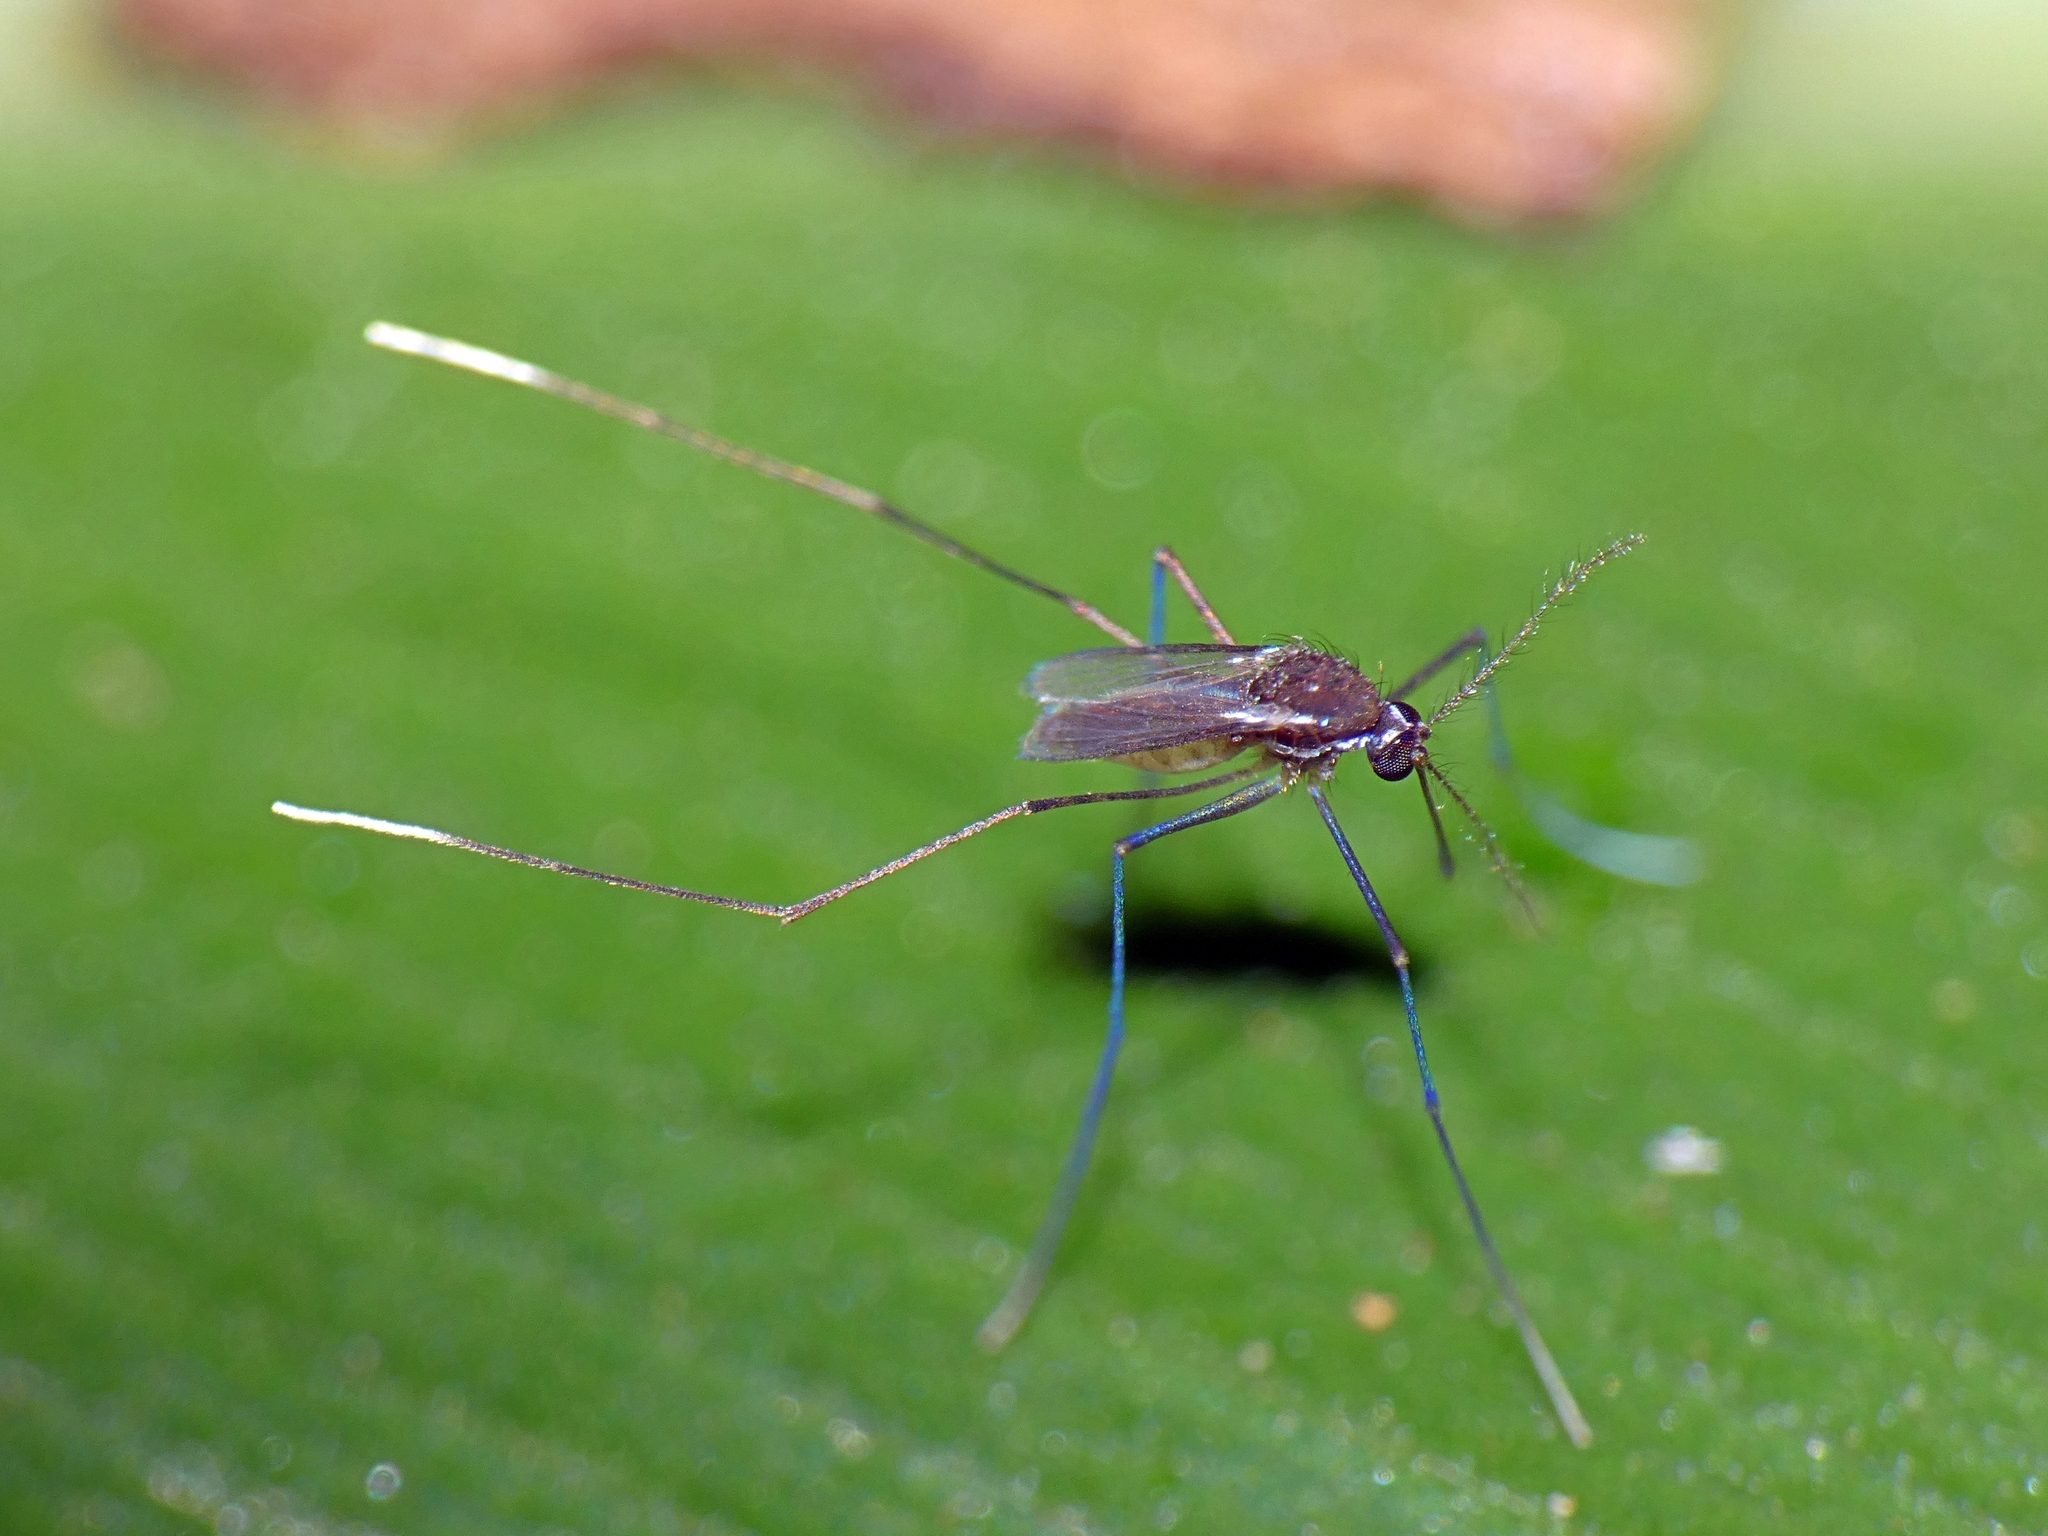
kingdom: Animalia
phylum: Arthropoda
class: Insecta
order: Diptera
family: Culicidae
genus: Uranotaenia
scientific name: Uranotaenia lateralis
